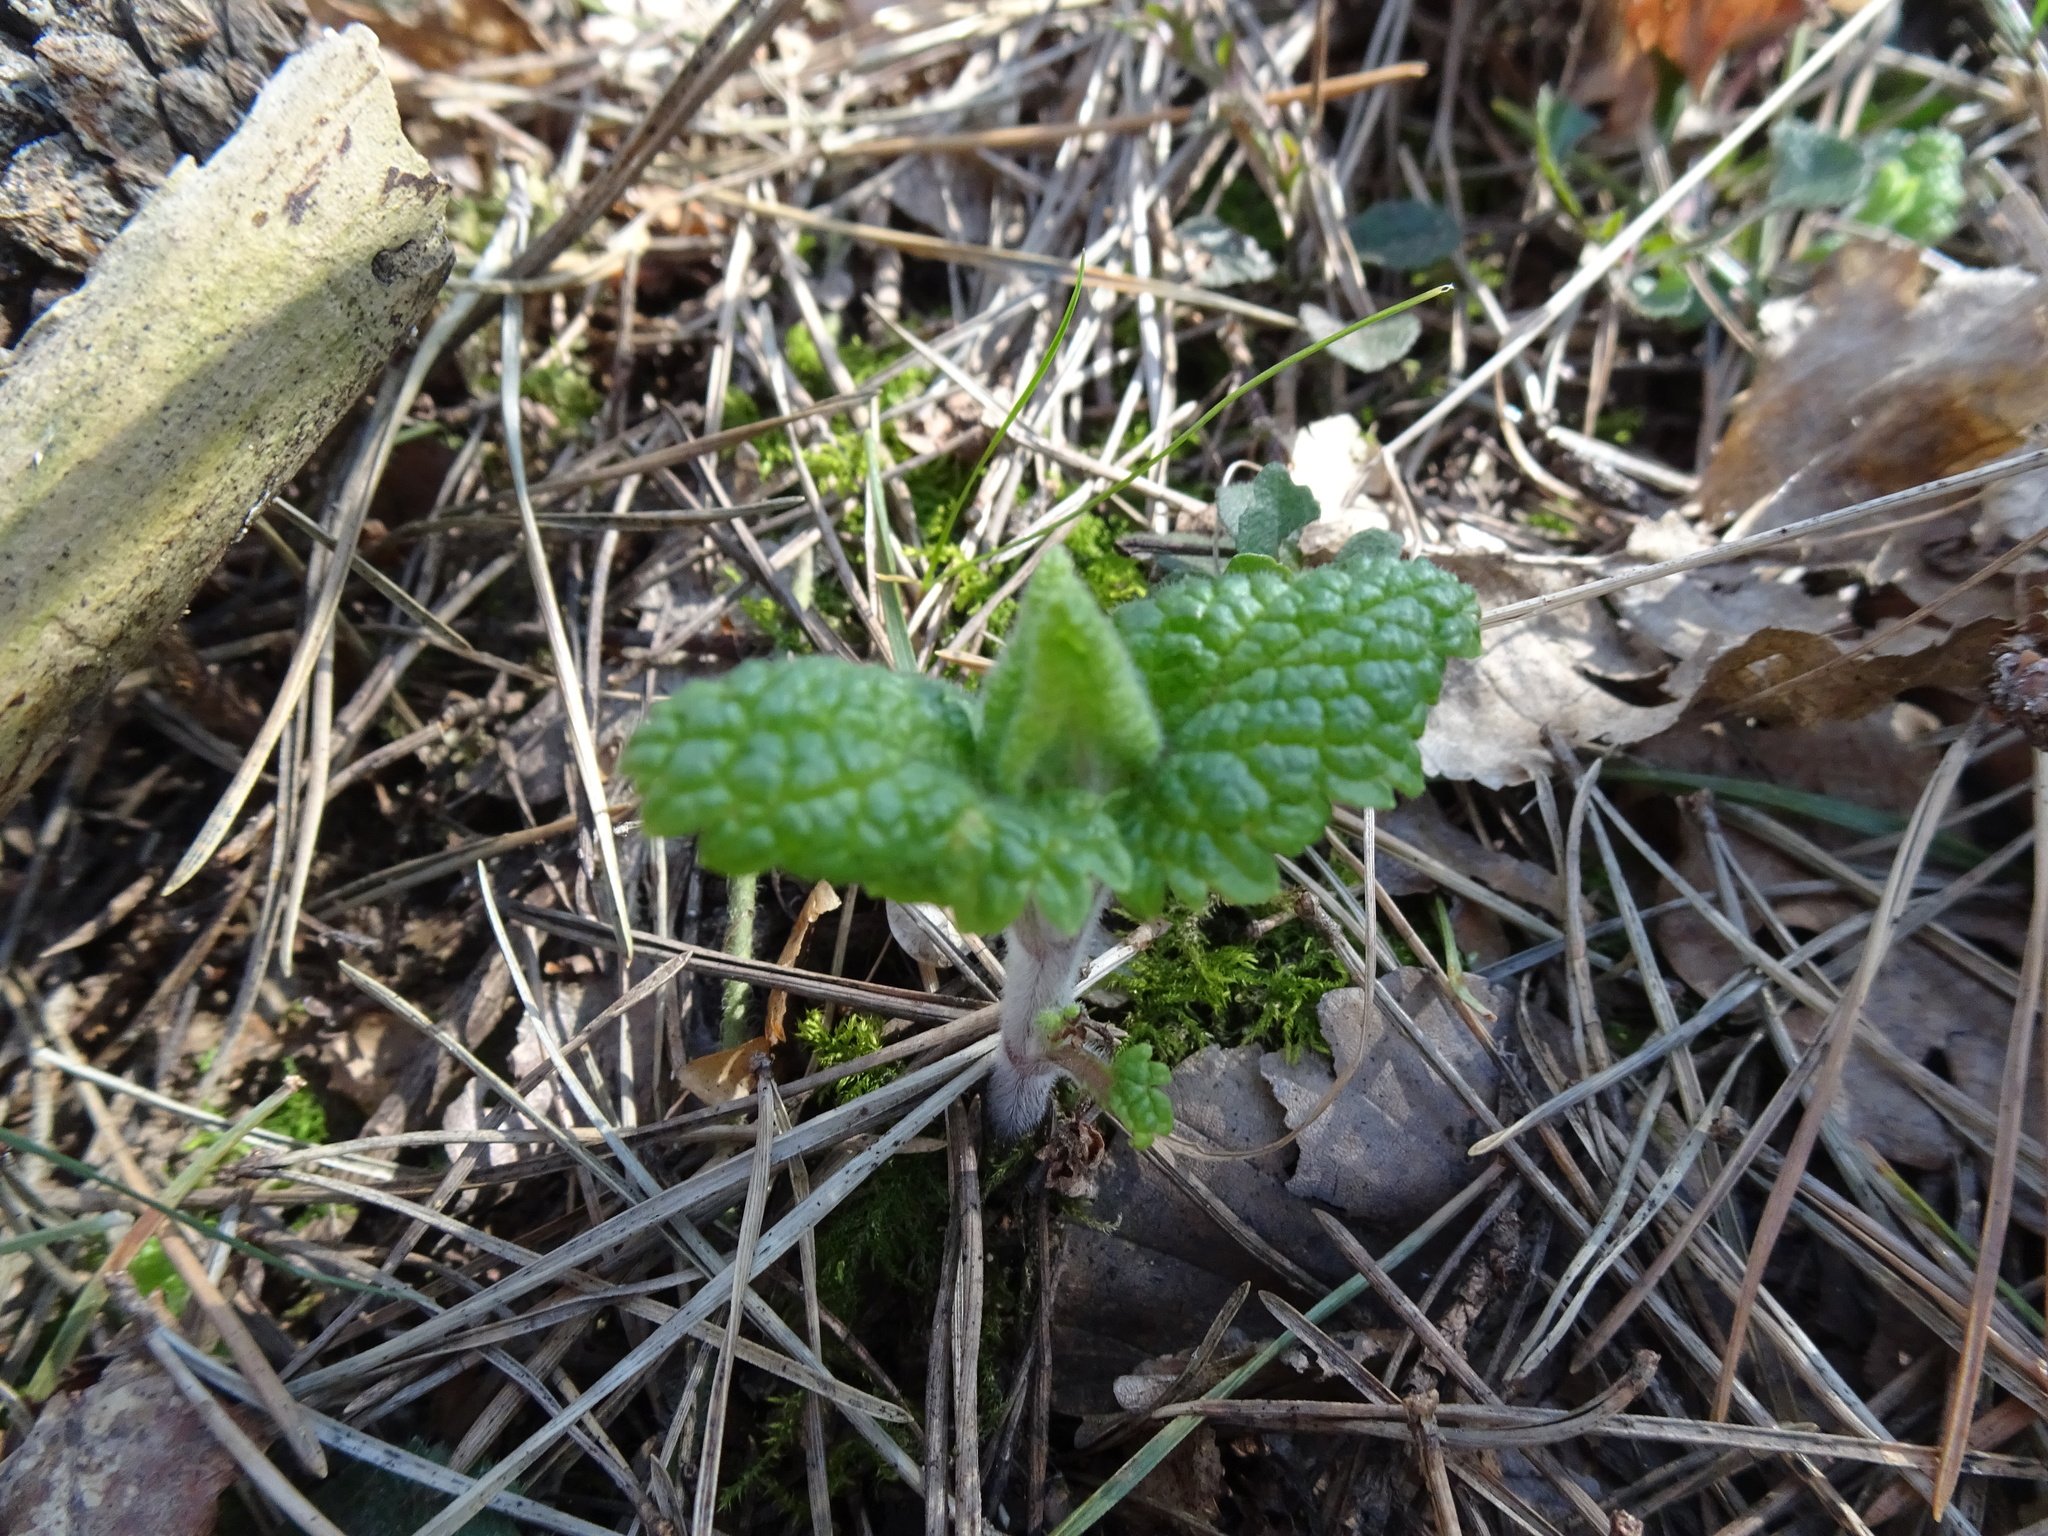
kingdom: Plantae
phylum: Tracheophyta
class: Magnoliopsida
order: Lamiales
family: Lamiaceae
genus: Teucrium
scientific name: Teucrium scorodonia
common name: Woodland germander
